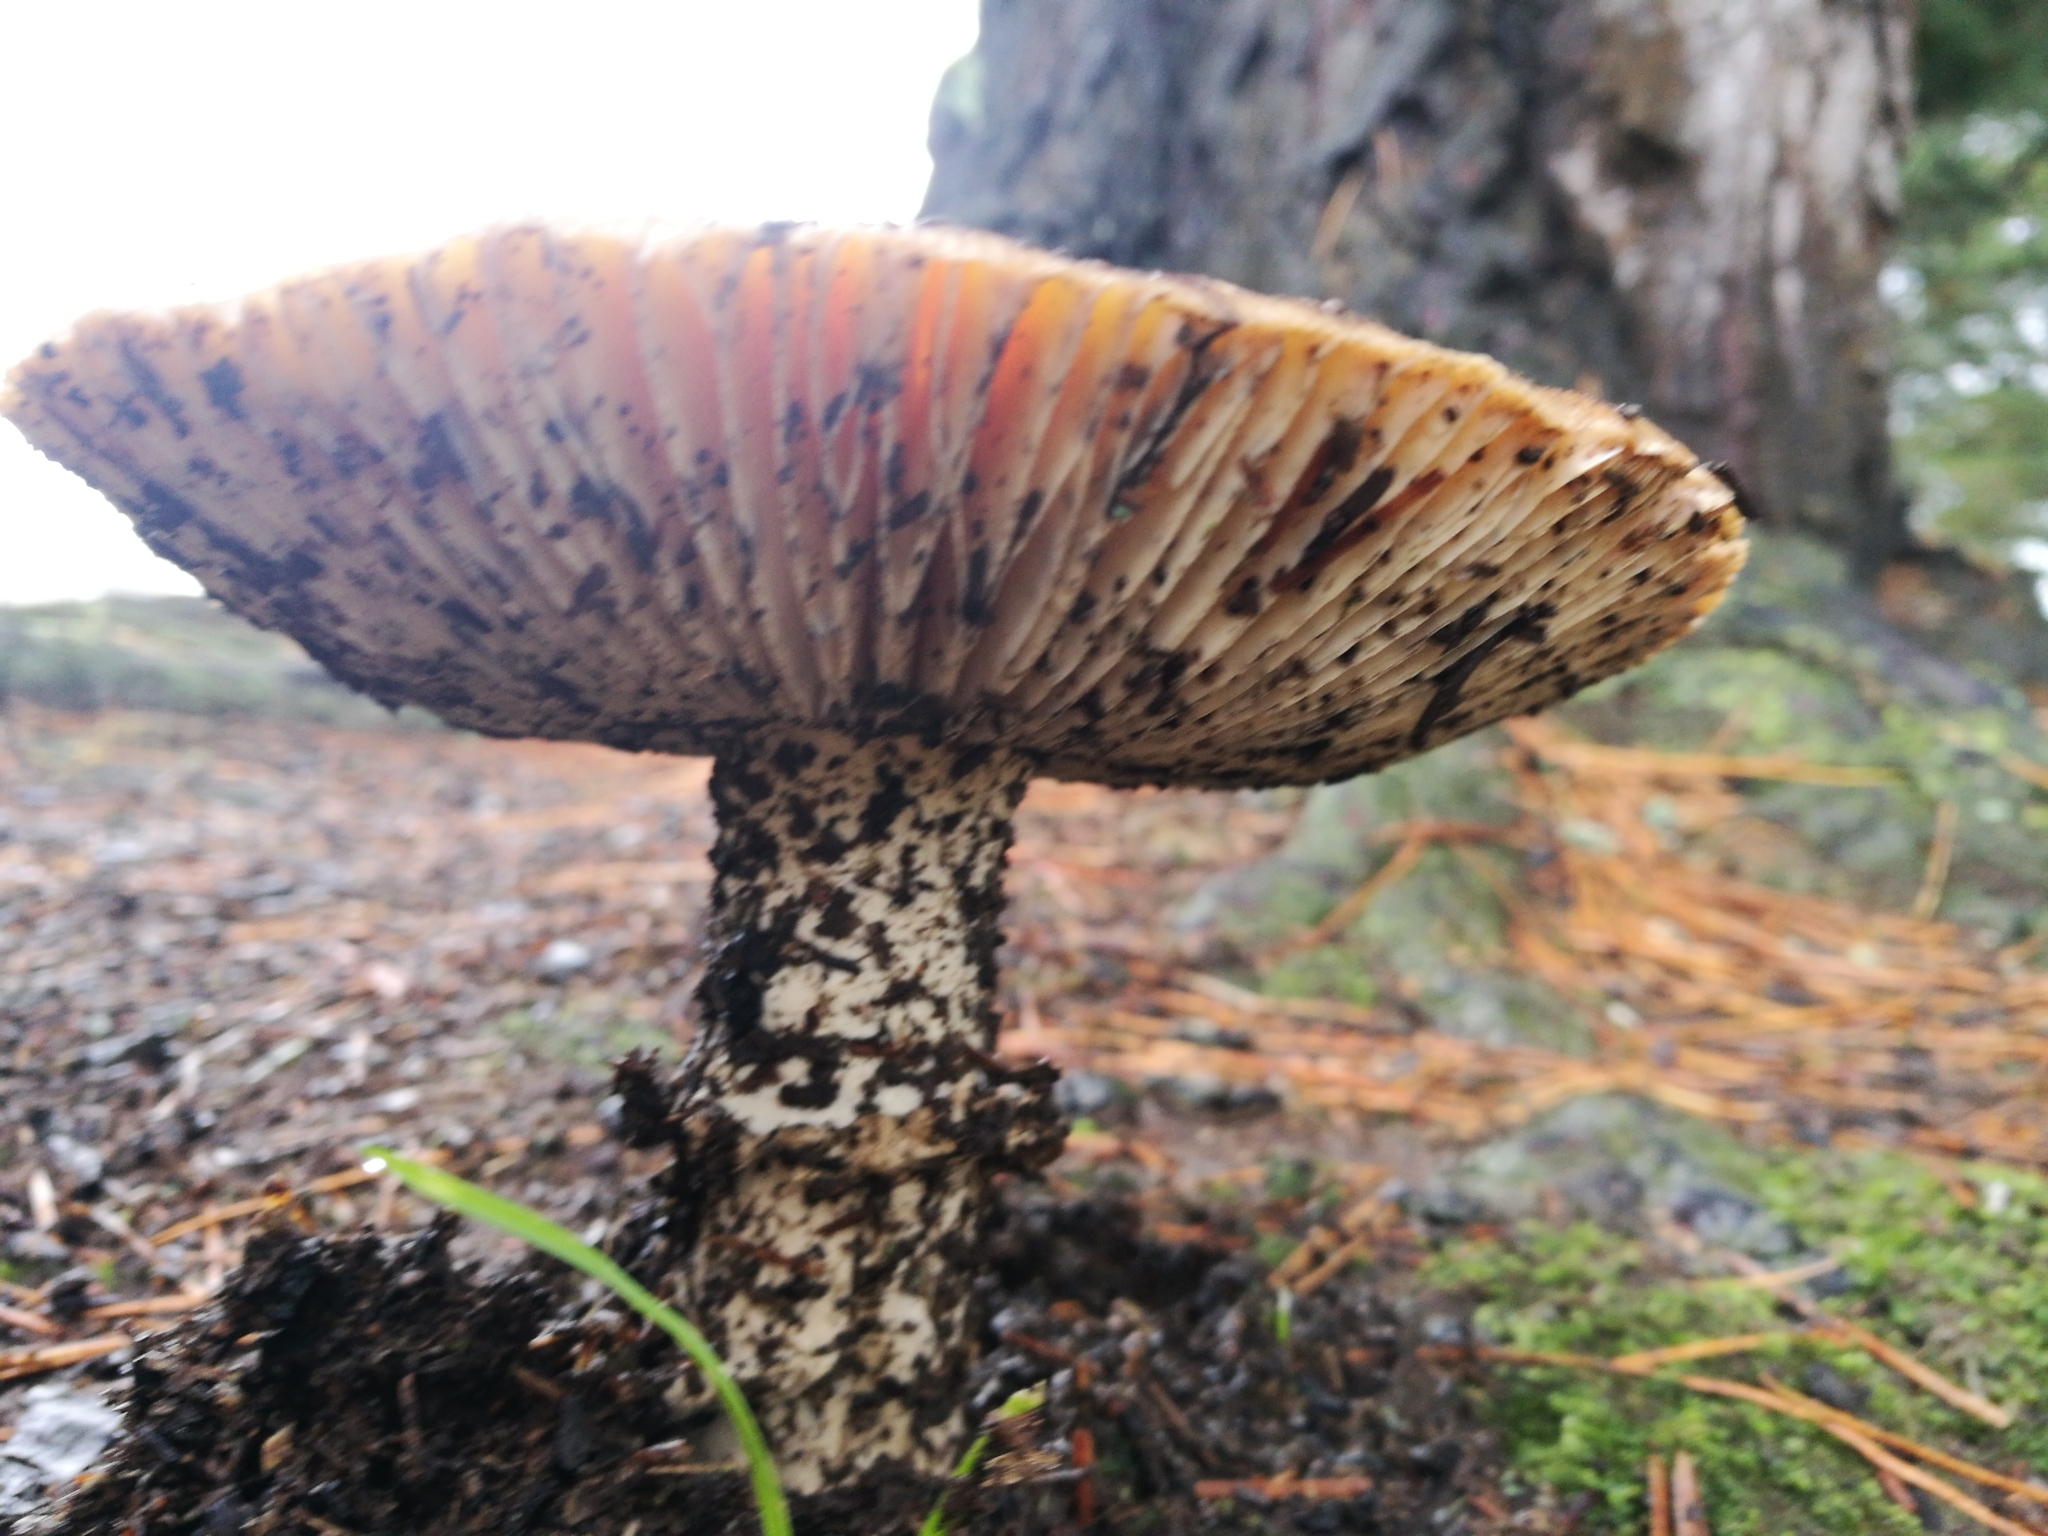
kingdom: Fungi
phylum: Basidiomycota
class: Agaricomycetes
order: Agaricales
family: Amanitaceae
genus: Amanita
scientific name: Amanita muscaria
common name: Fly agaric
